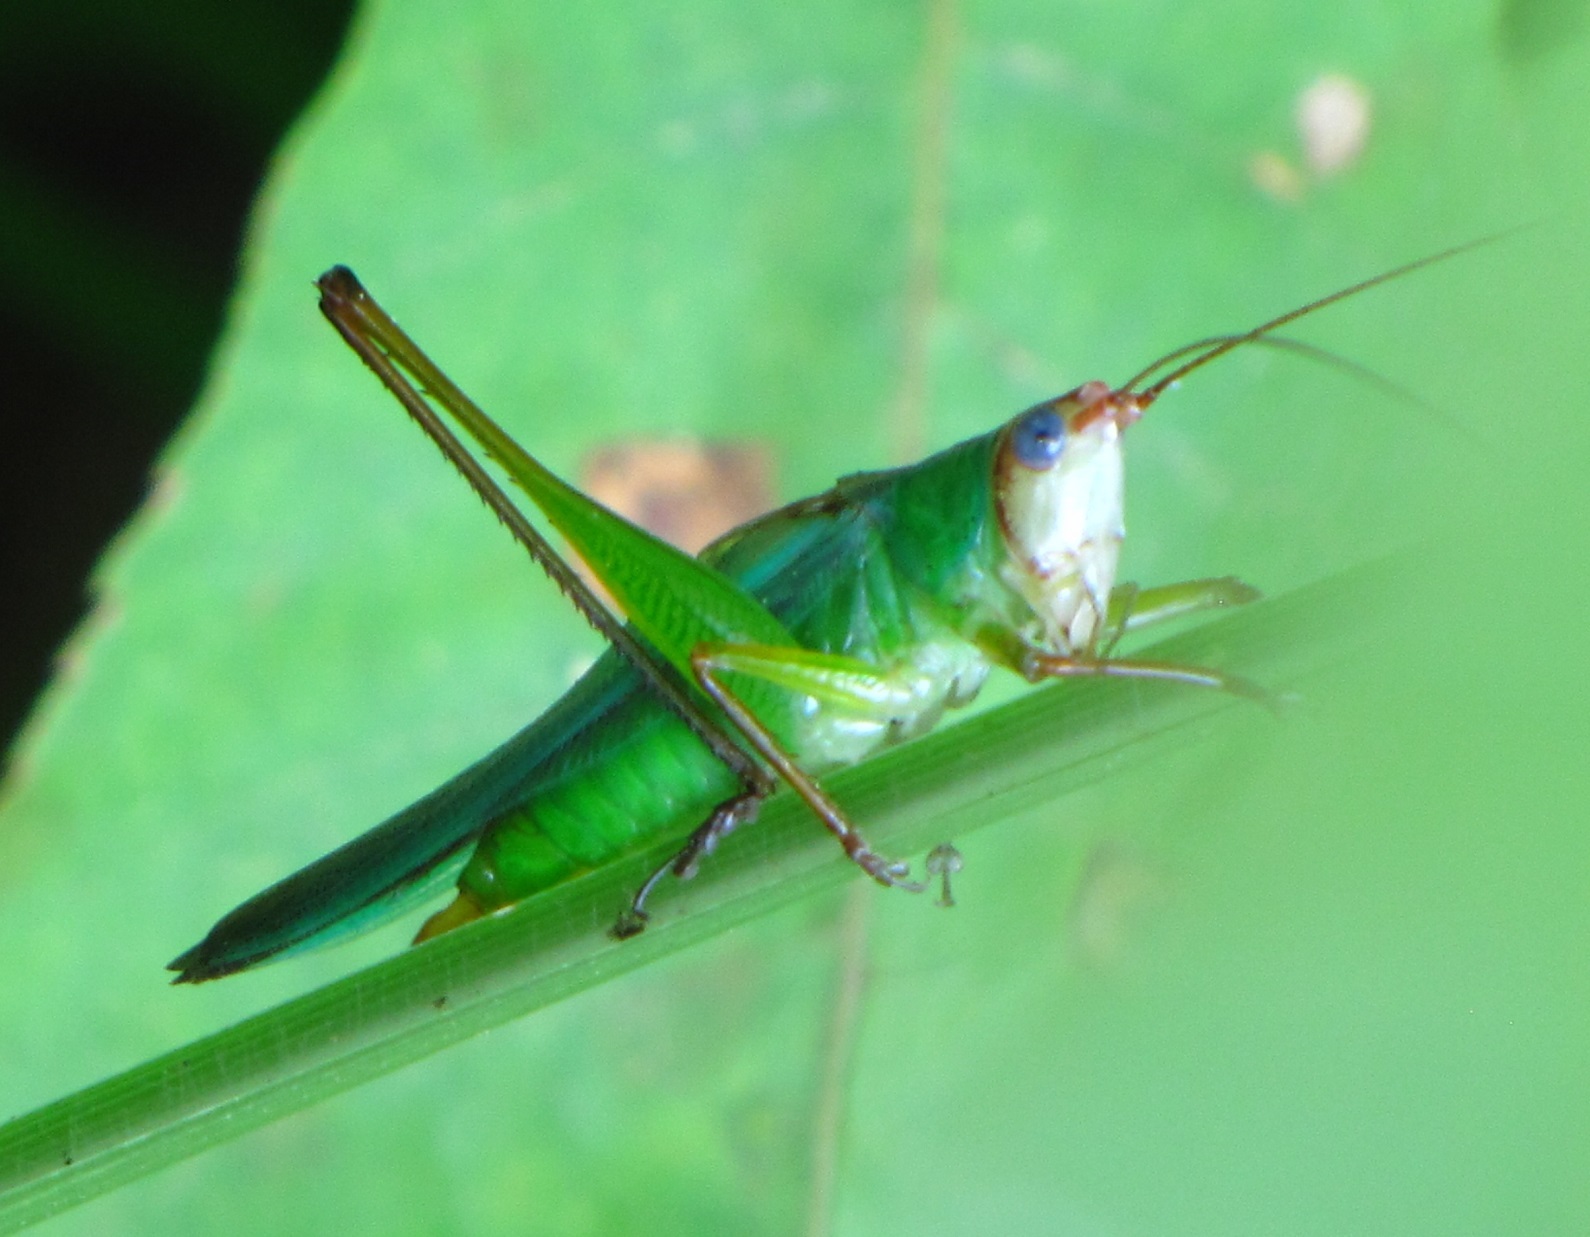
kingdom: Animalia
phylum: Arthropoda
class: Insecta
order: Orthoptera
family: Tettigoniidae
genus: Orchelimum
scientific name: Orchelimum pulchellum
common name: Handsome meadow katydid
